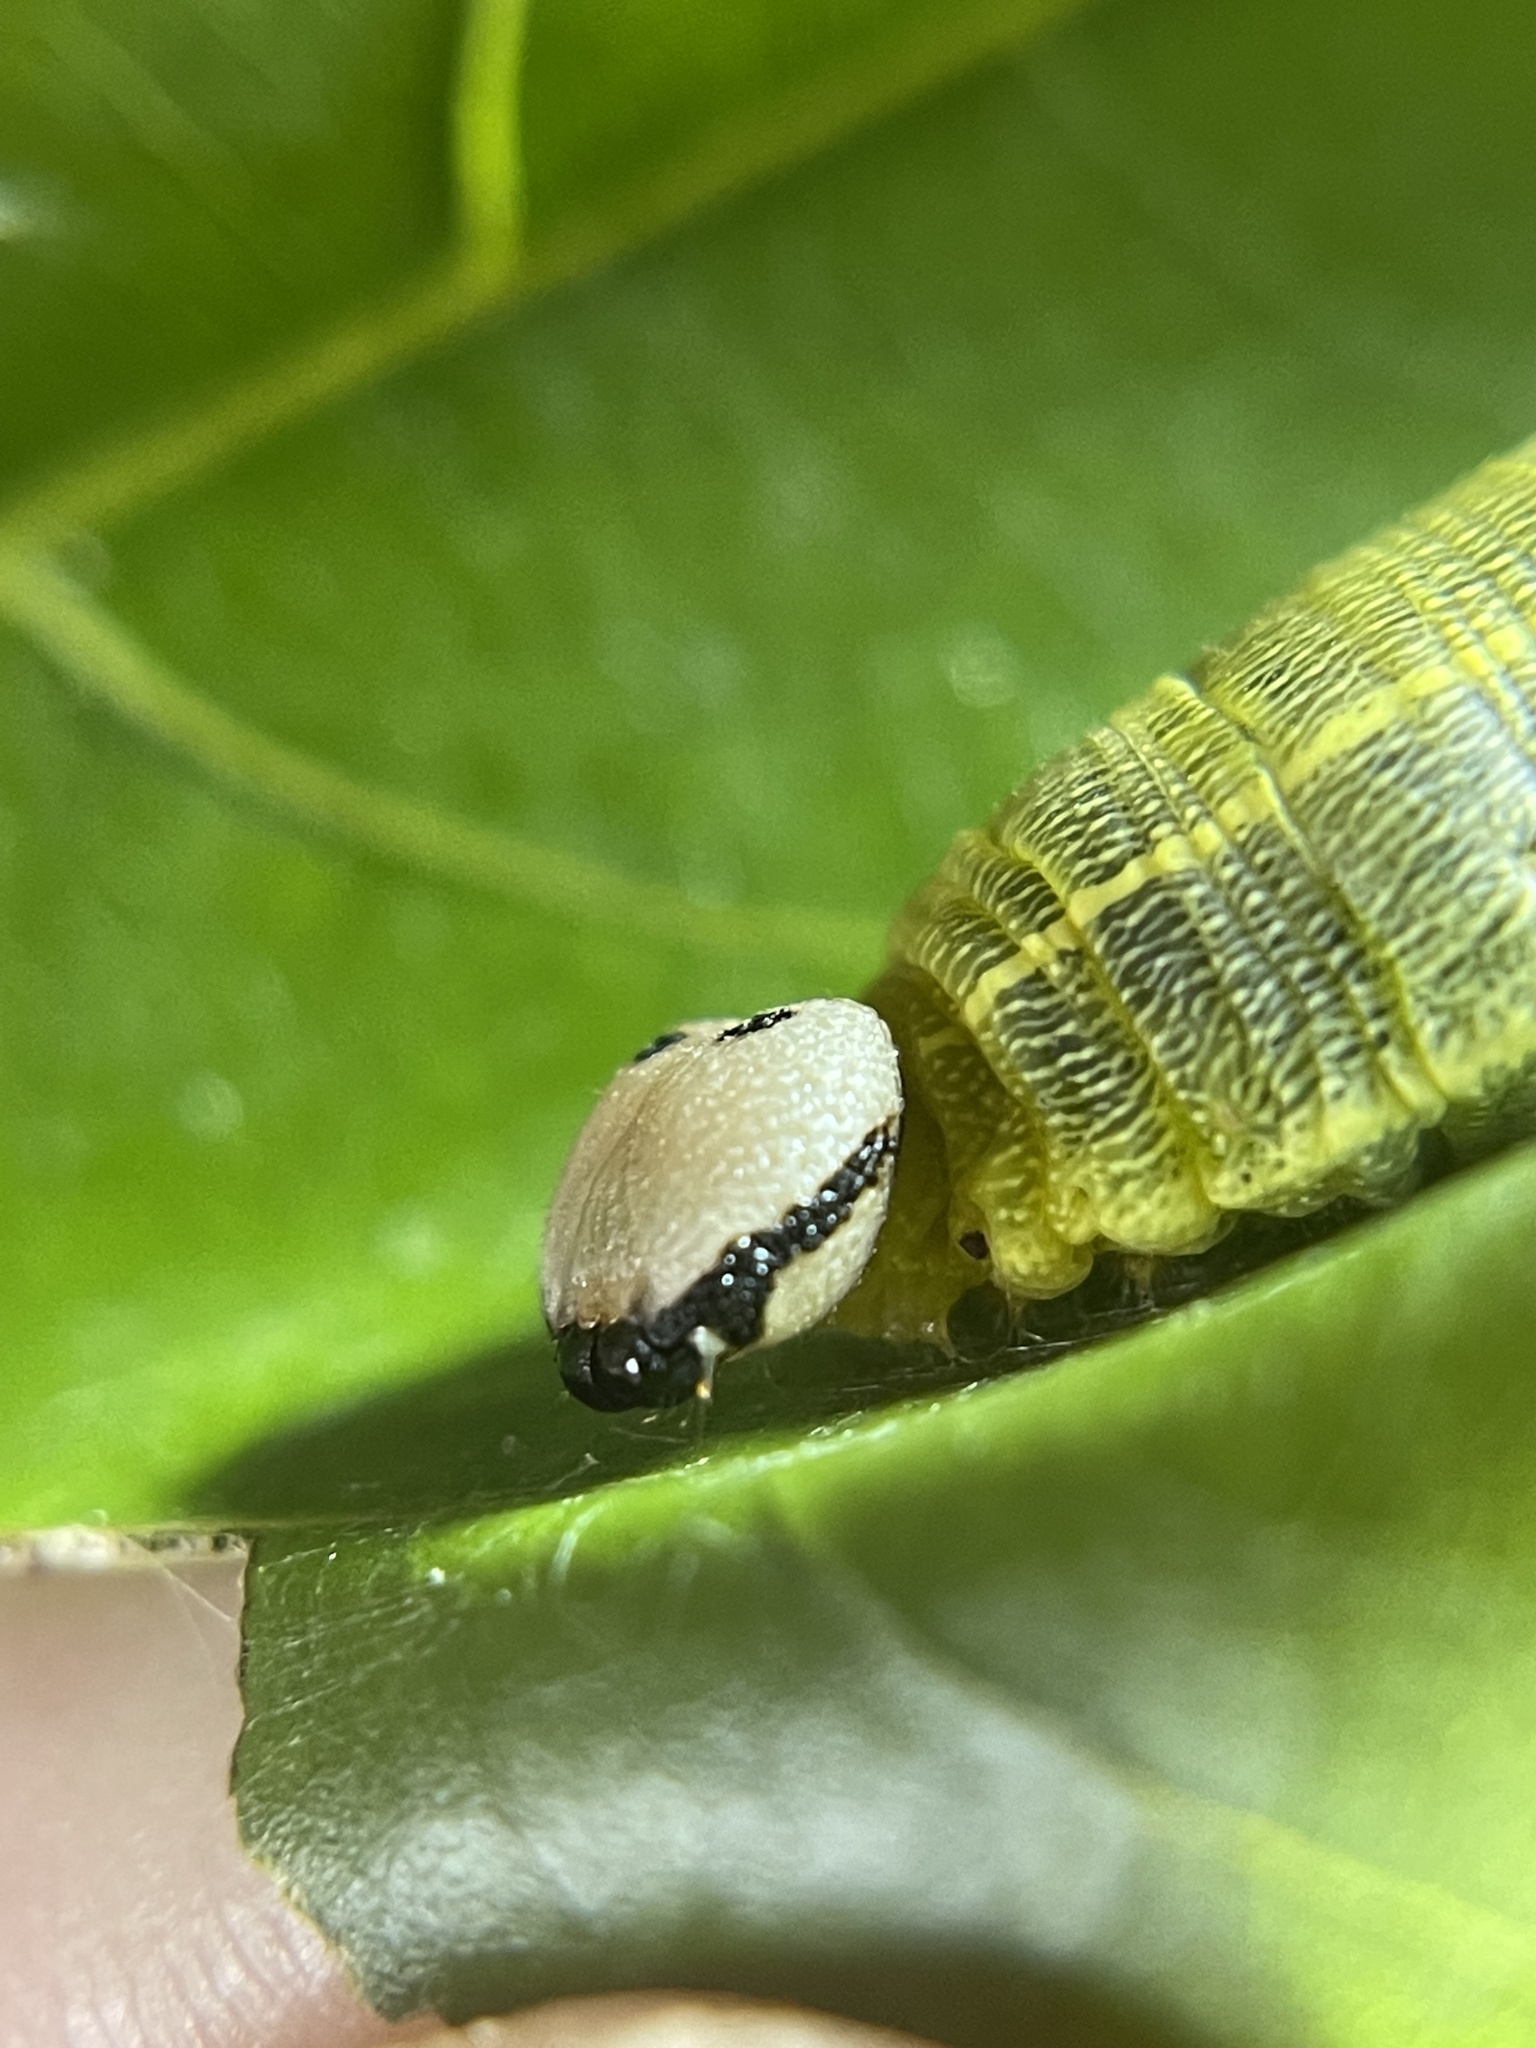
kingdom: Animalia
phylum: Arthropoda
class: Insecta
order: Lepidoptera
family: Hesperiidae
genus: Polygonus
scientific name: Polygonus leo
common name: Hammoch skipper
